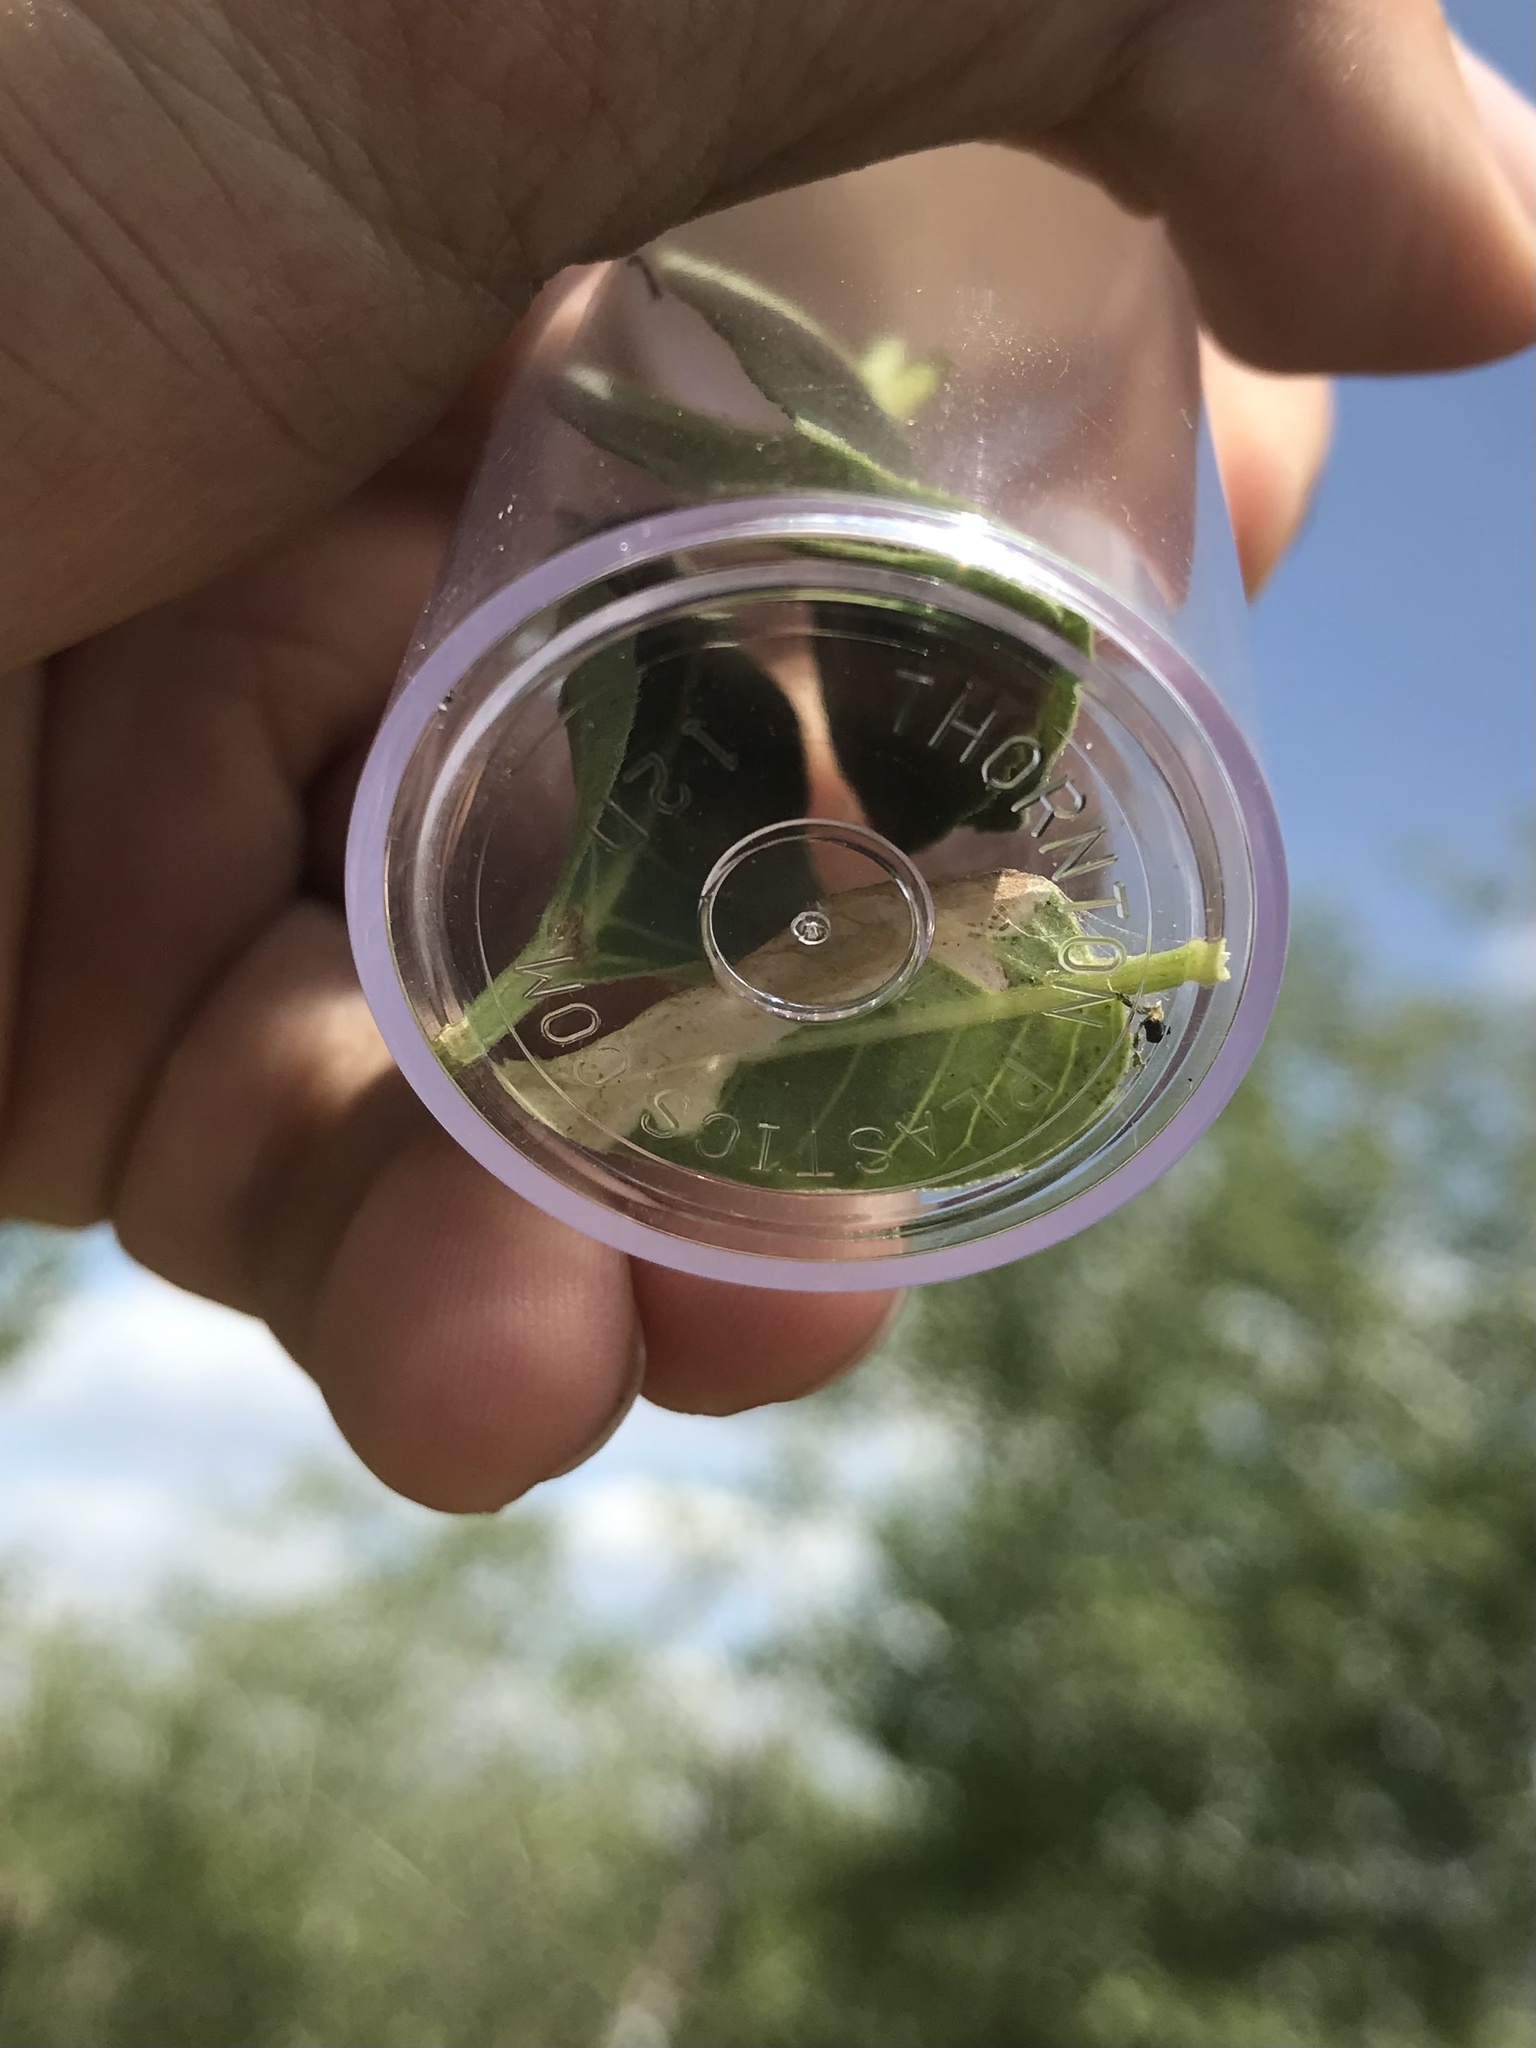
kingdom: Animalia
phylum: Arthropoda
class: Insecta
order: Lepidoptera
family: Heliodinidae
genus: Heliodines
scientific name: Heliodines Aetole tripunctella
